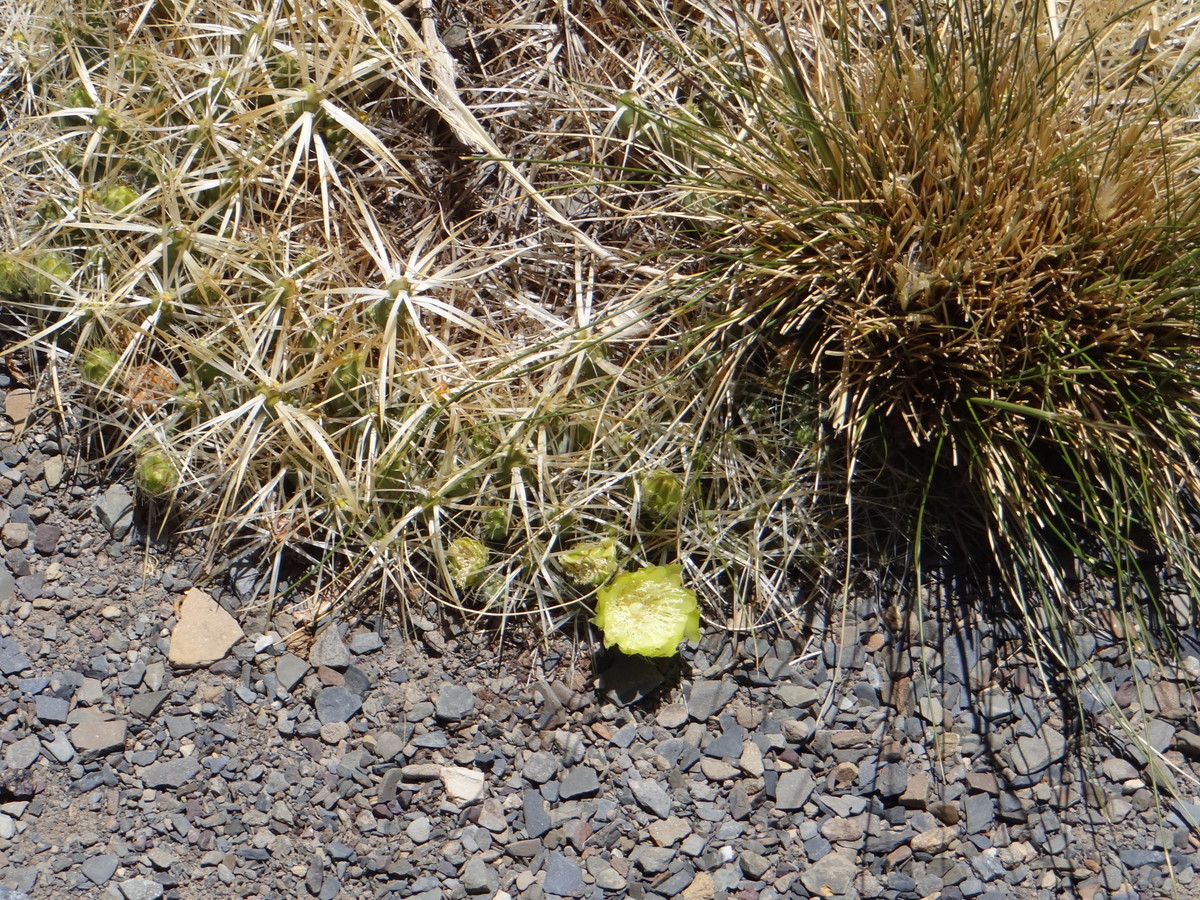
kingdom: Plantae
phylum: Tracheophyta
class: Magnoliopsida
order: Caryophyllales
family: Cactaceae
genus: Maihueniopsis
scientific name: Maihueniopsis glomerata
